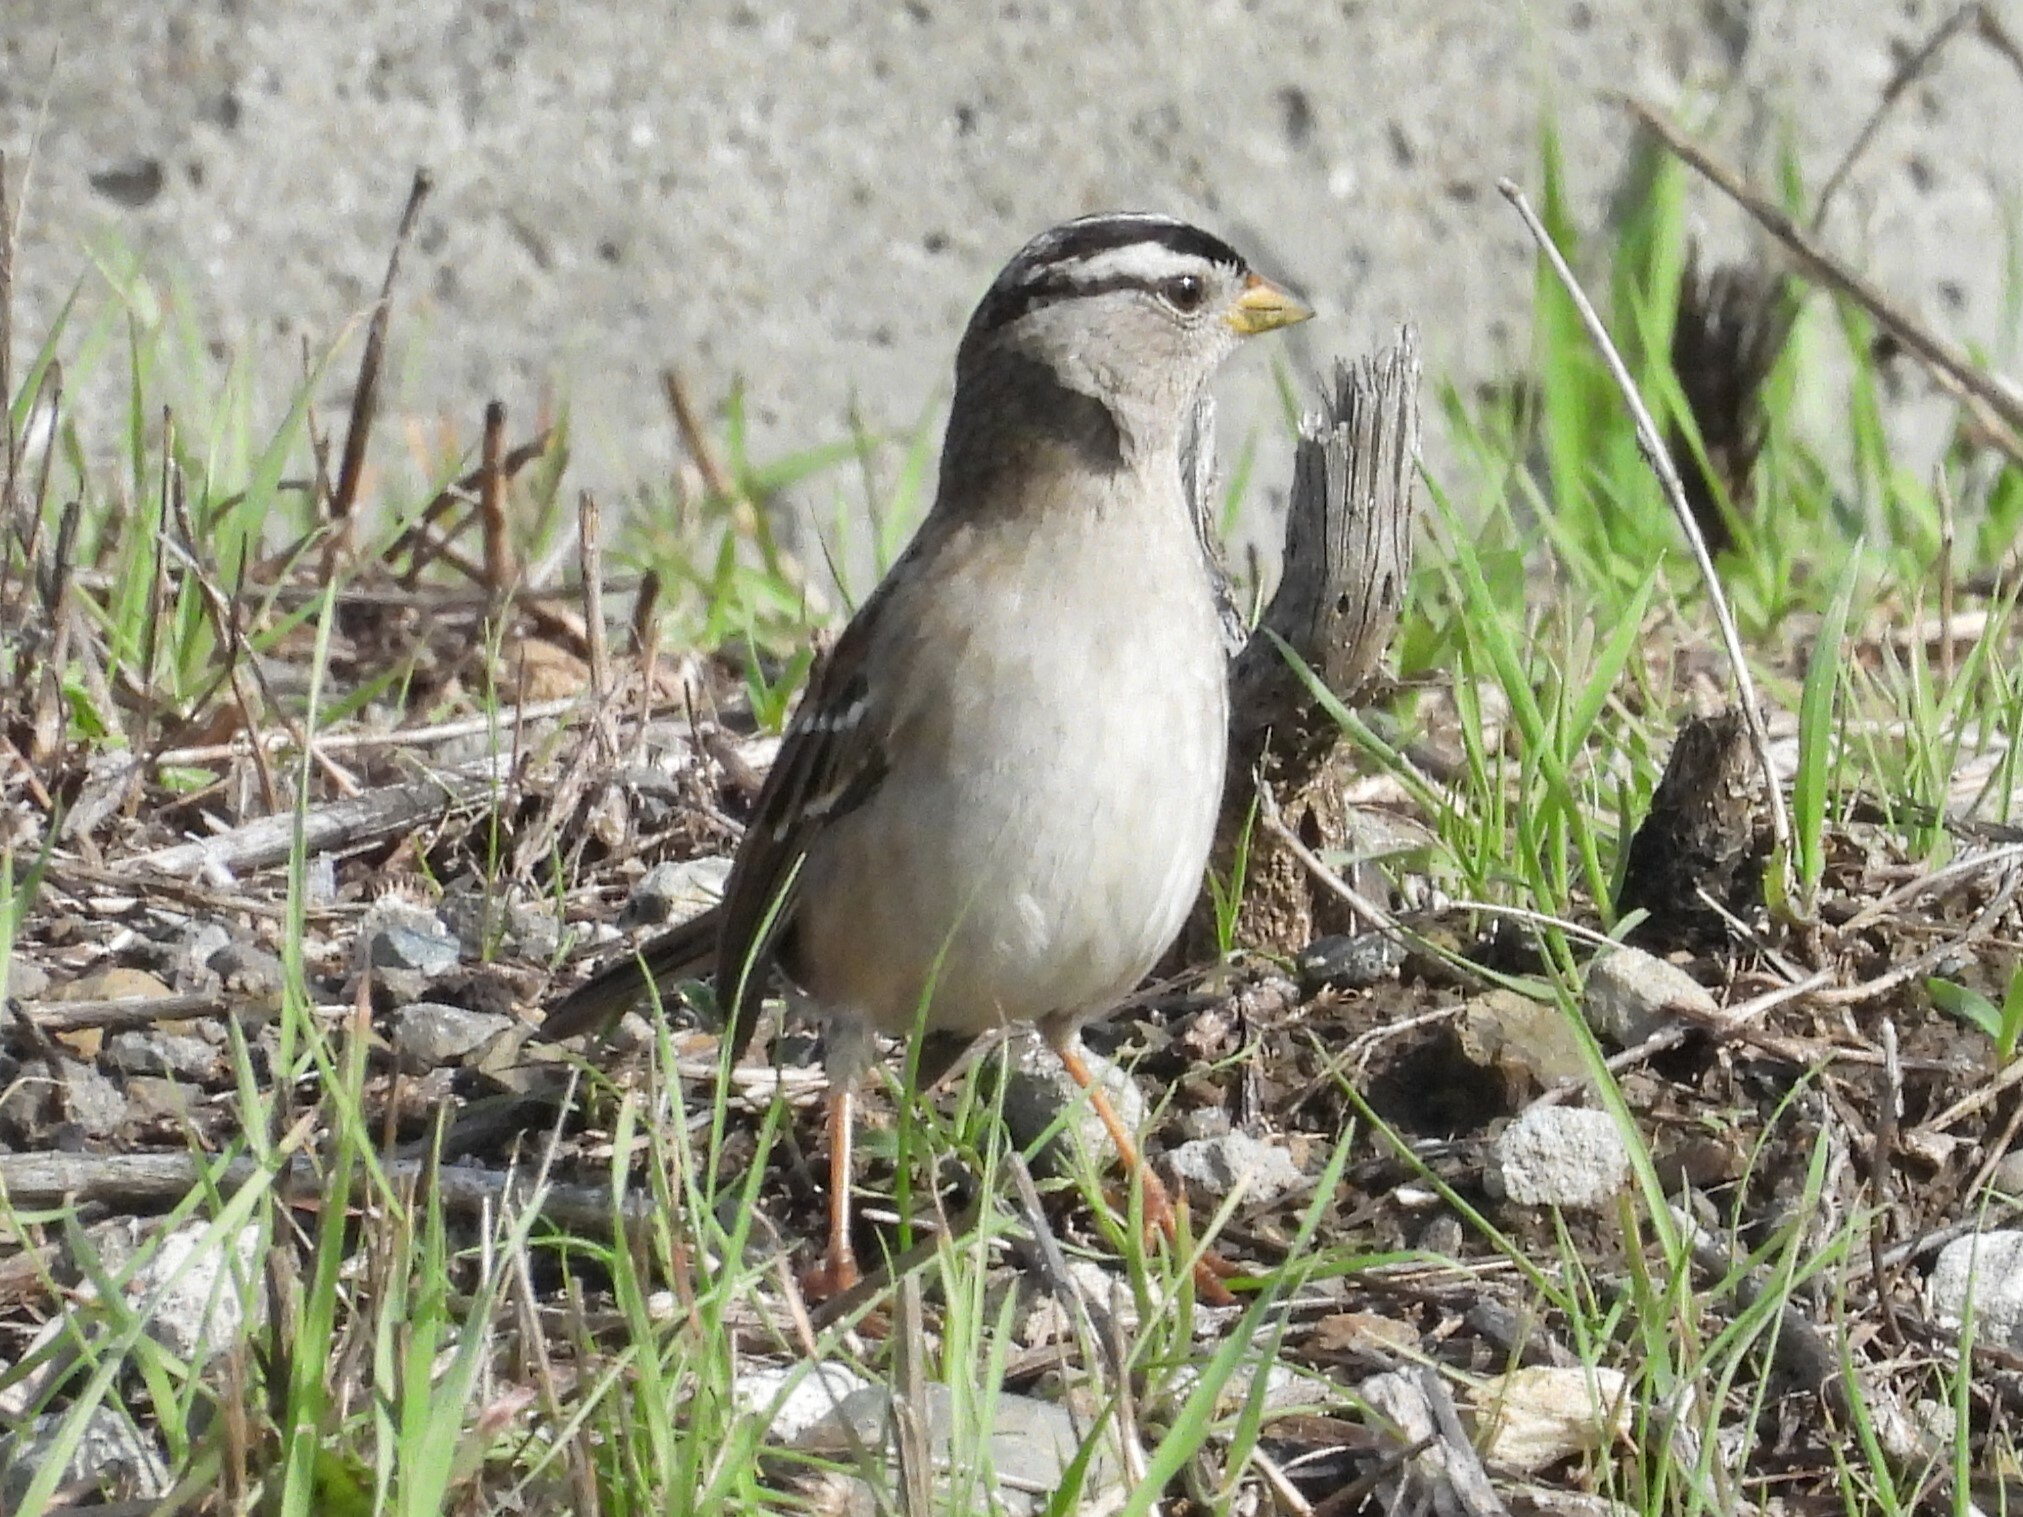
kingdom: Animalia
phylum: Chordata
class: Aves
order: Passeriformes
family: Passerellidae
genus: Zonotrichia
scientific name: Zonotrichia leucophrys
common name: White-crowned sparrow
